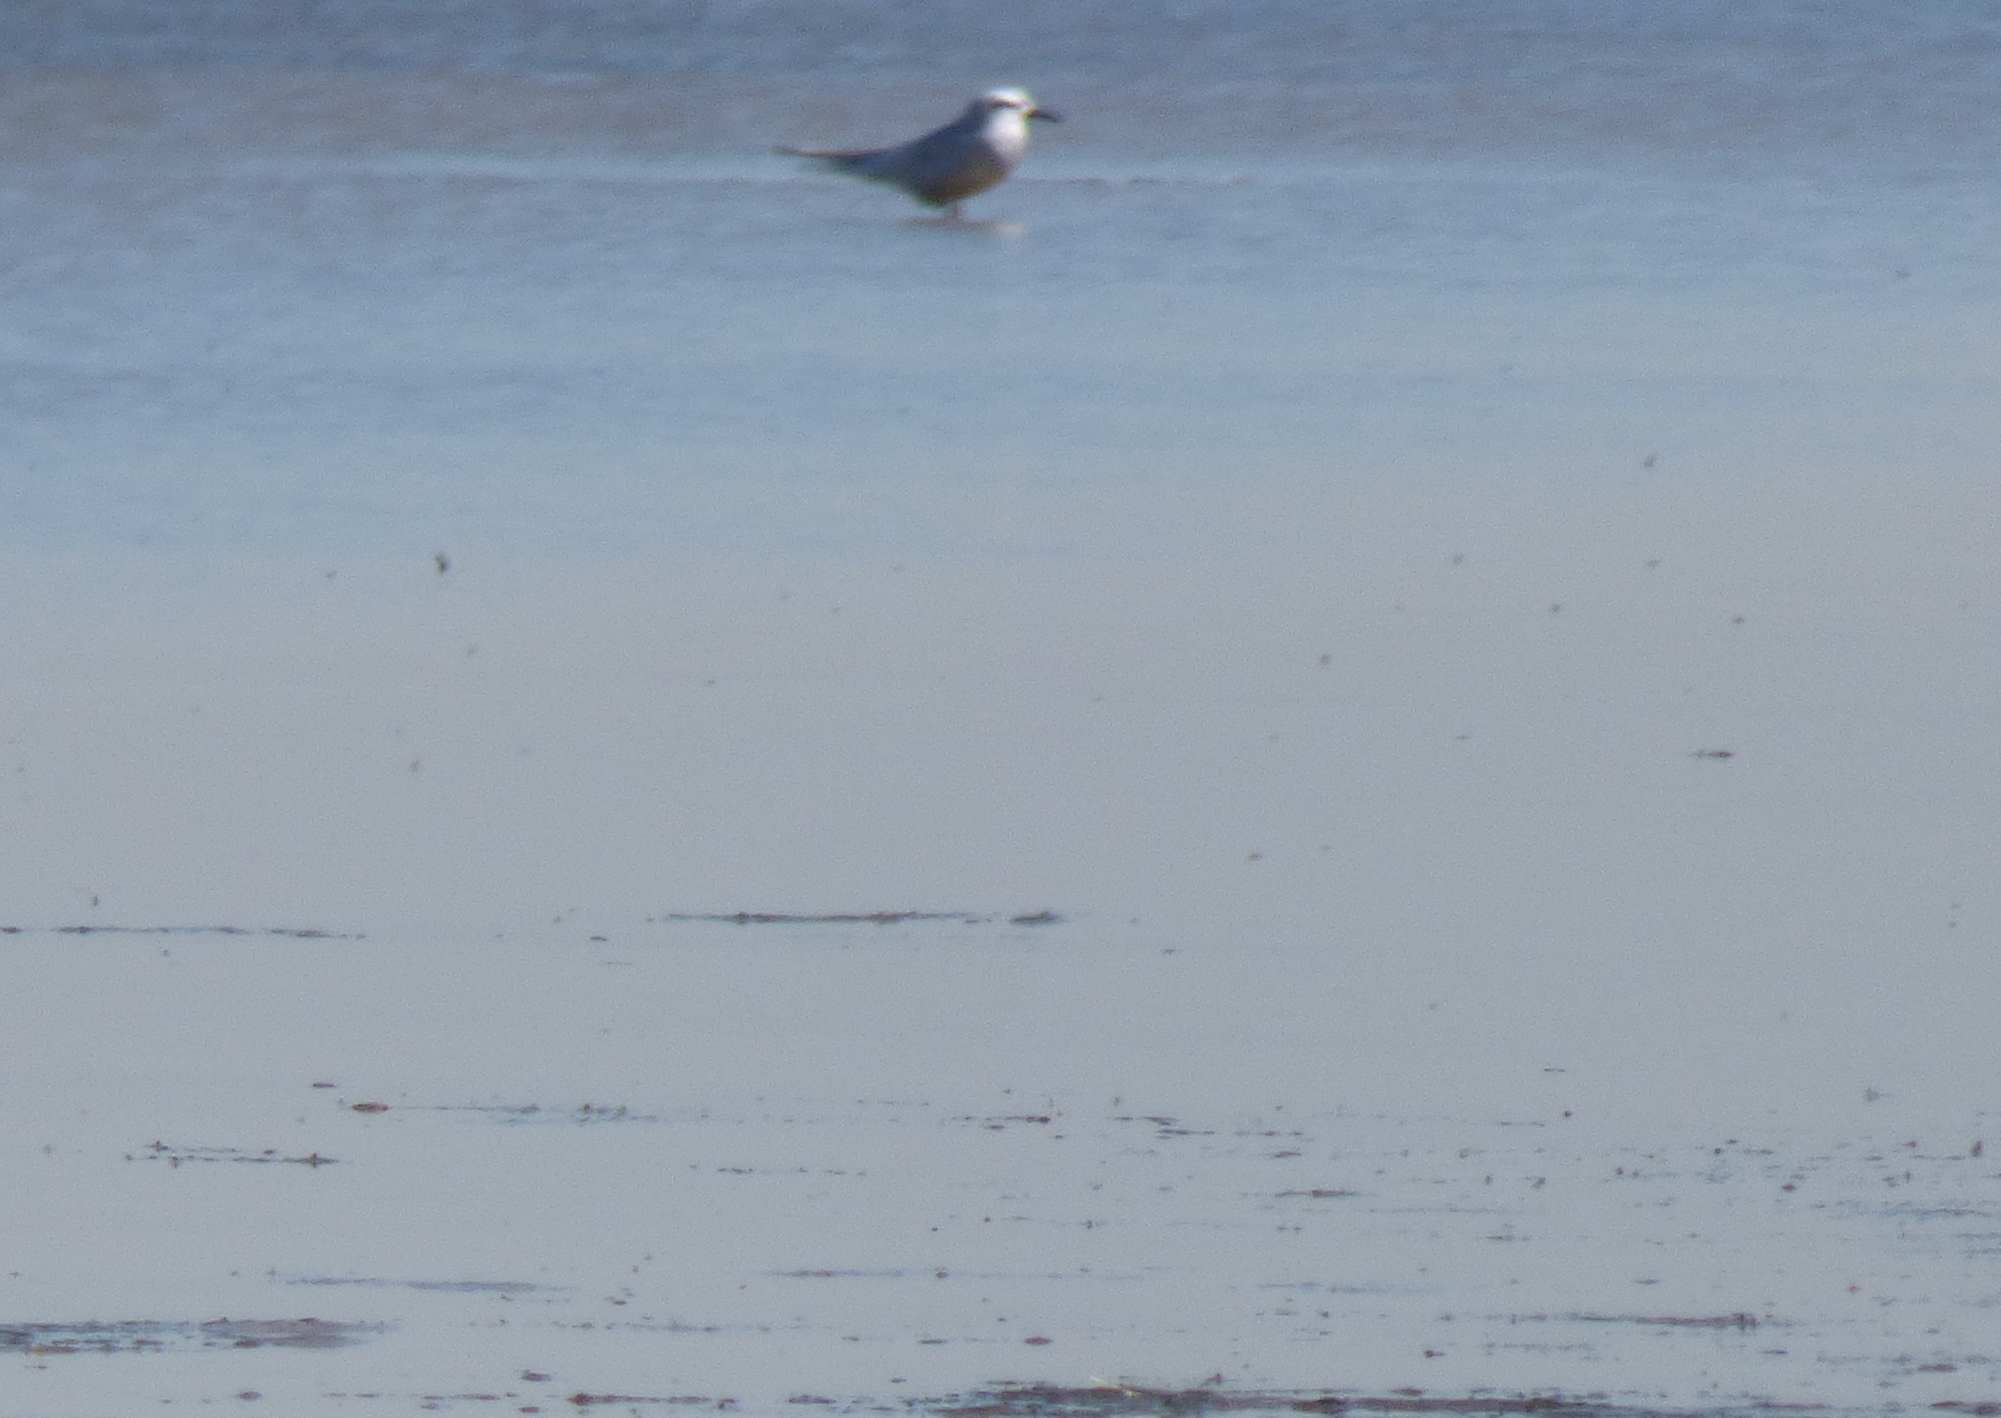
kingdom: Animalia
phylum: Chordata
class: Aves
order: Charadriiformes
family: Laridae
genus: Sterna
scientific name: Sterna trudeaui
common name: Snowy-crowned tern
